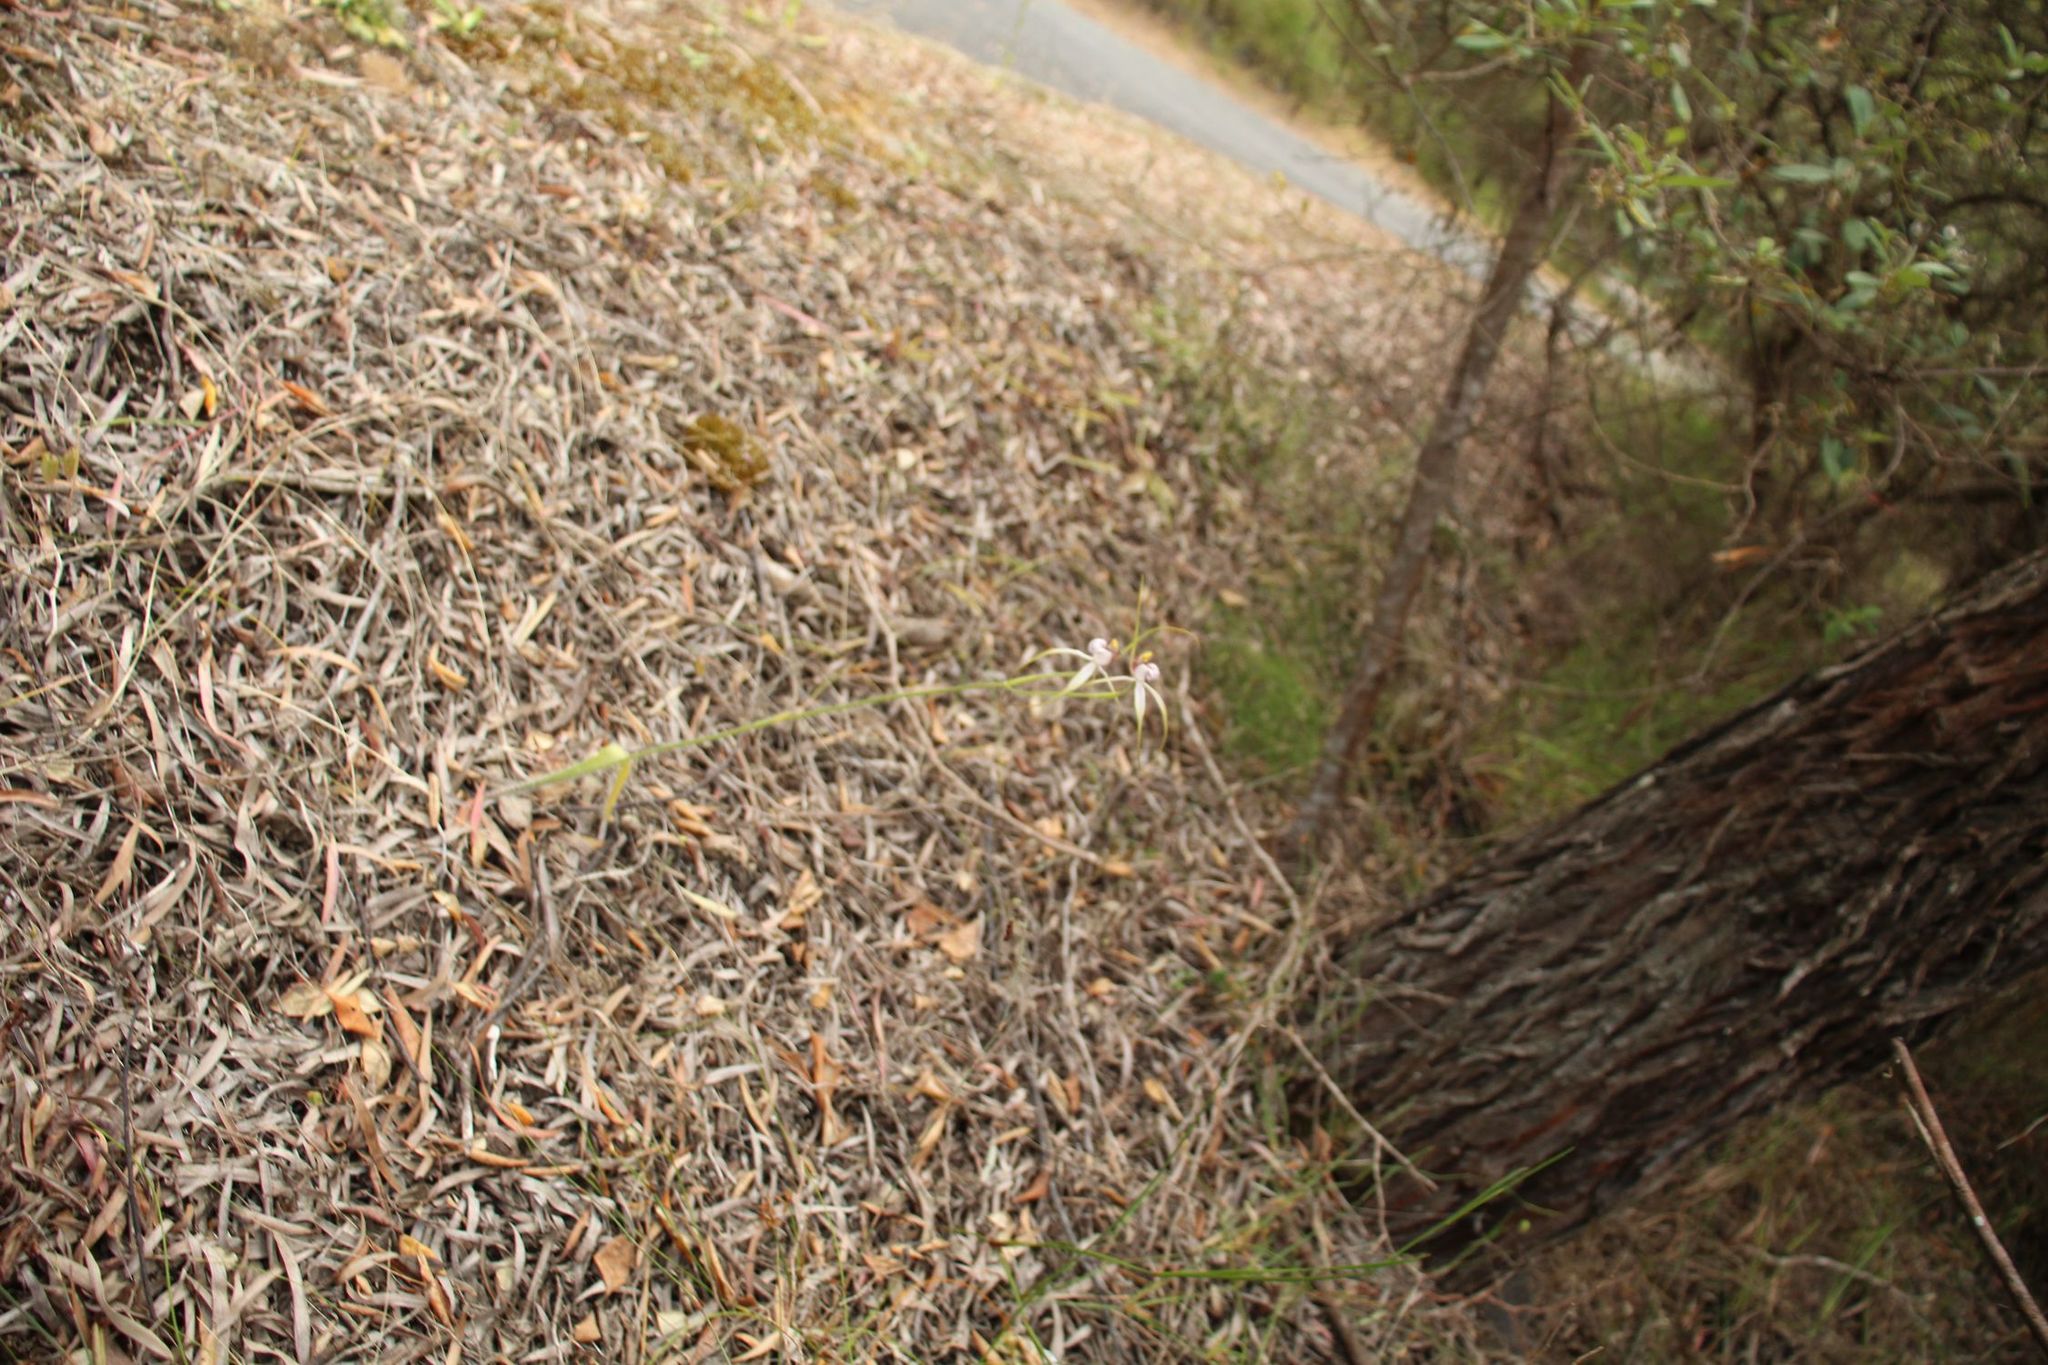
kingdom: Plantae
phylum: Tracheophyta
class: Liliopsida
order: Asparagales
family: Orchidaceae
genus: Caladenia
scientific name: Caladenia serotina
